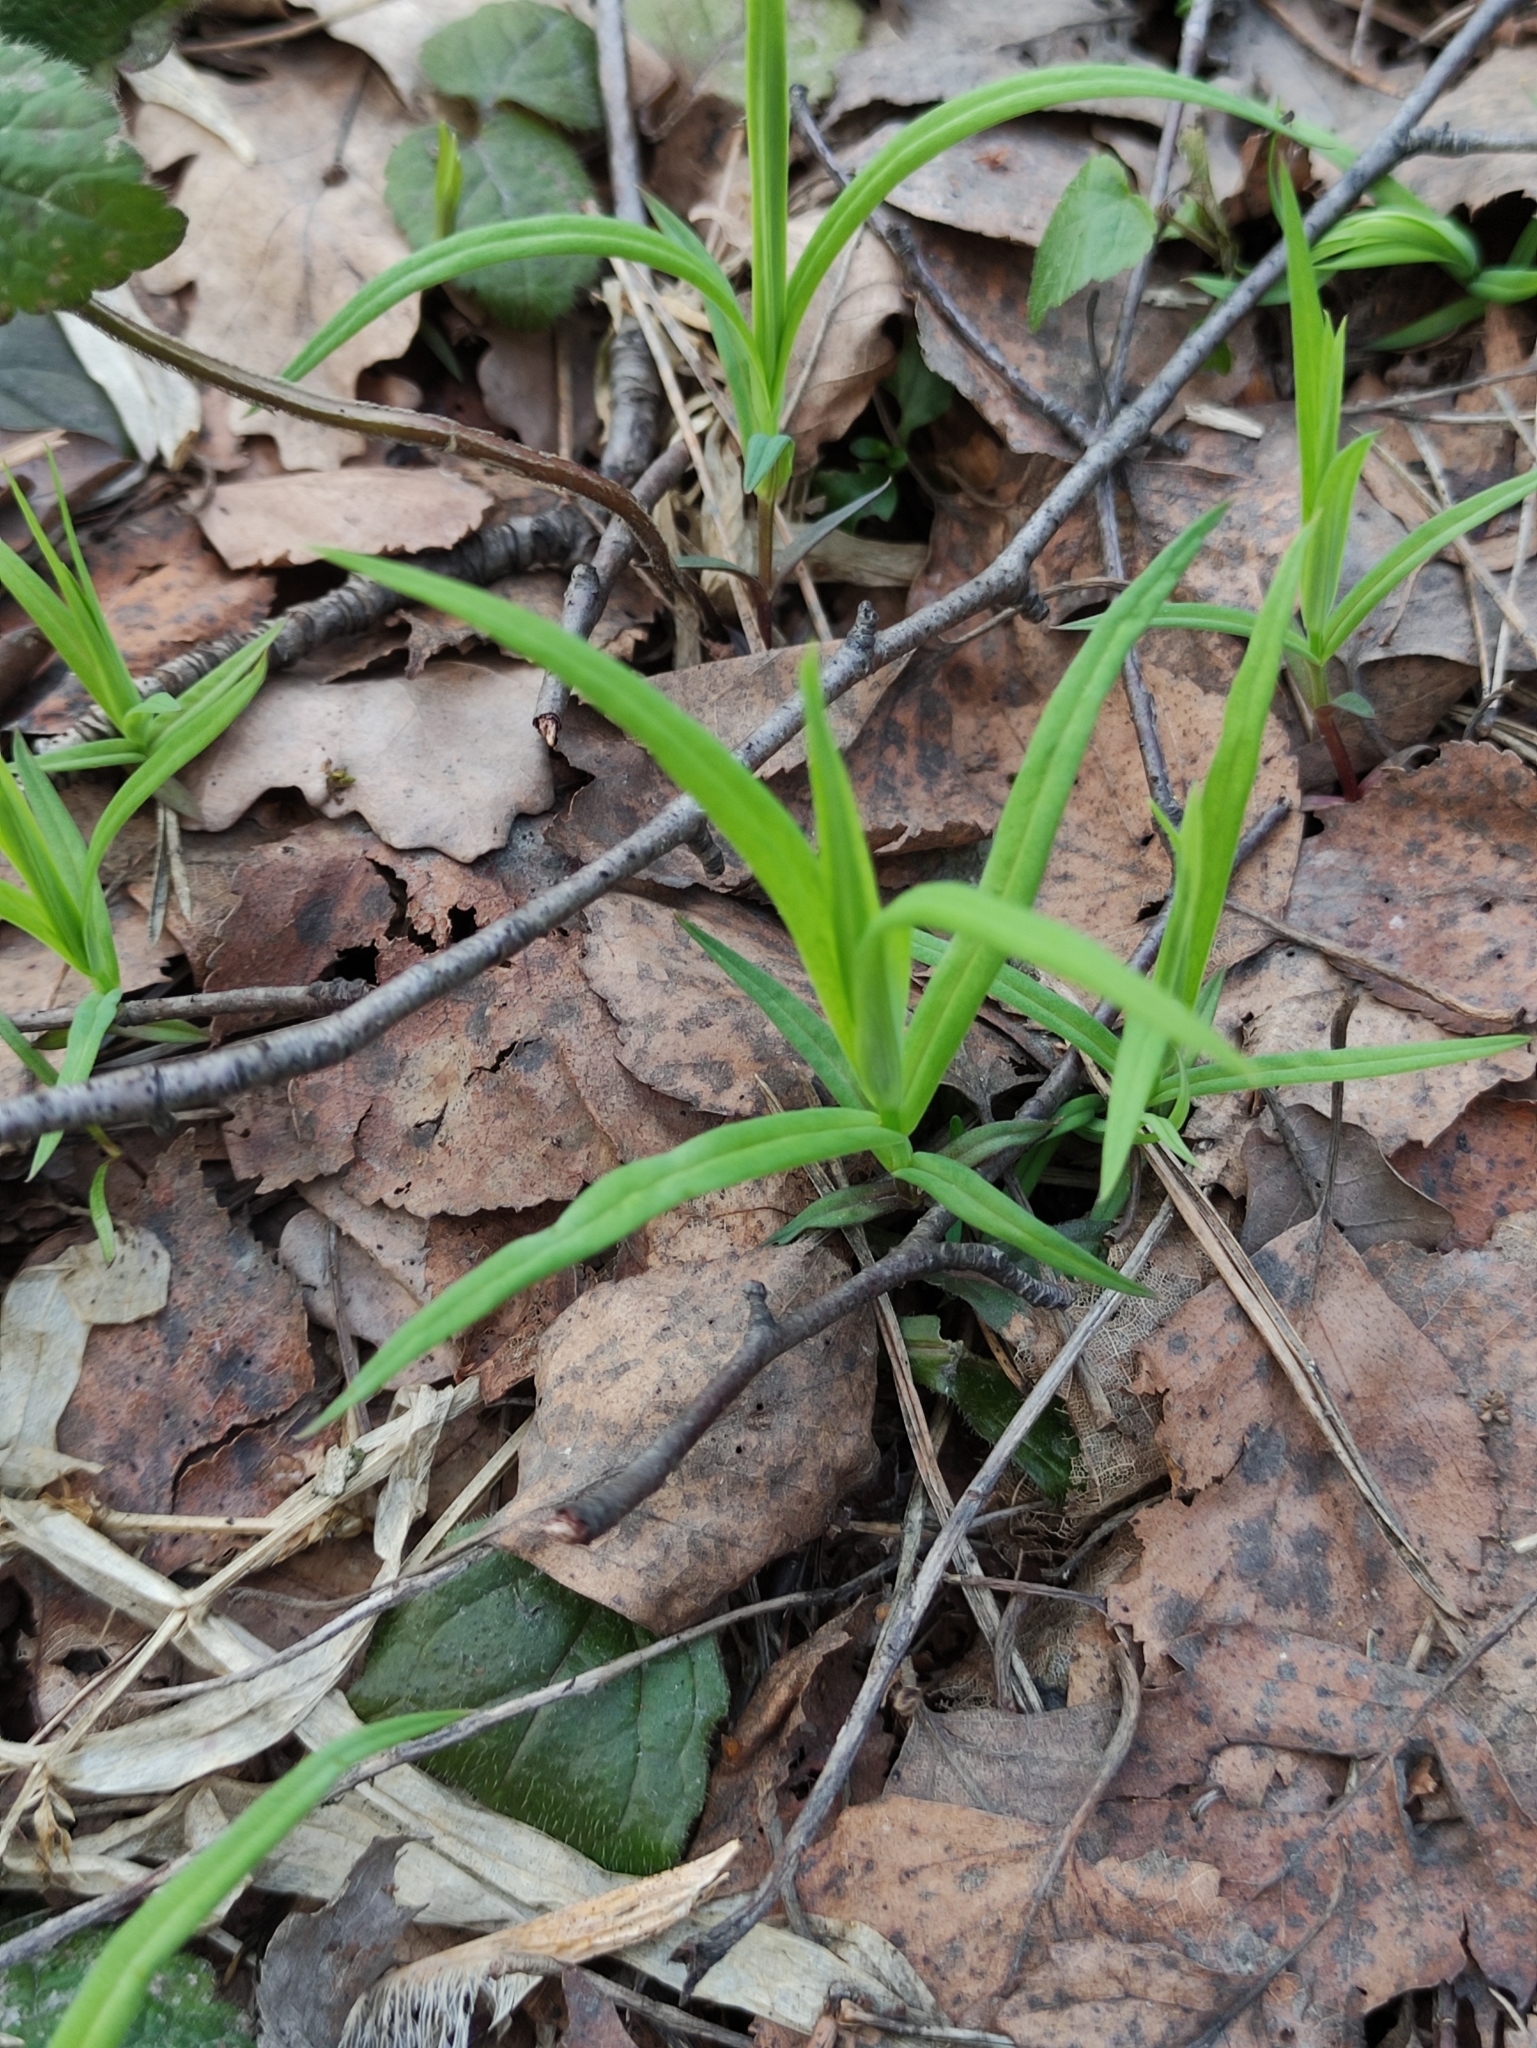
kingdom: Plantae
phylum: Tracheophyta
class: Magnoliopsida
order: Caryophyllales
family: Caryophyllaceae
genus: Rabelera
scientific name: Rabelera holostea
